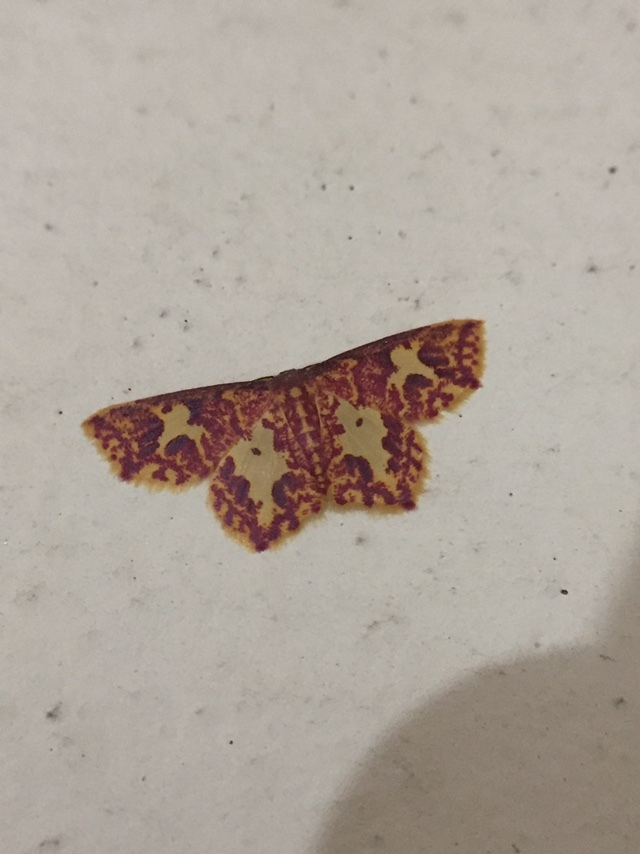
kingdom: Animalia
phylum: Arthropoda
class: Insecta
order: Lepidoptera
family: Geometridae
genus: Chrysocraspeda
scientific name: Chrysocraspeda faganaria
